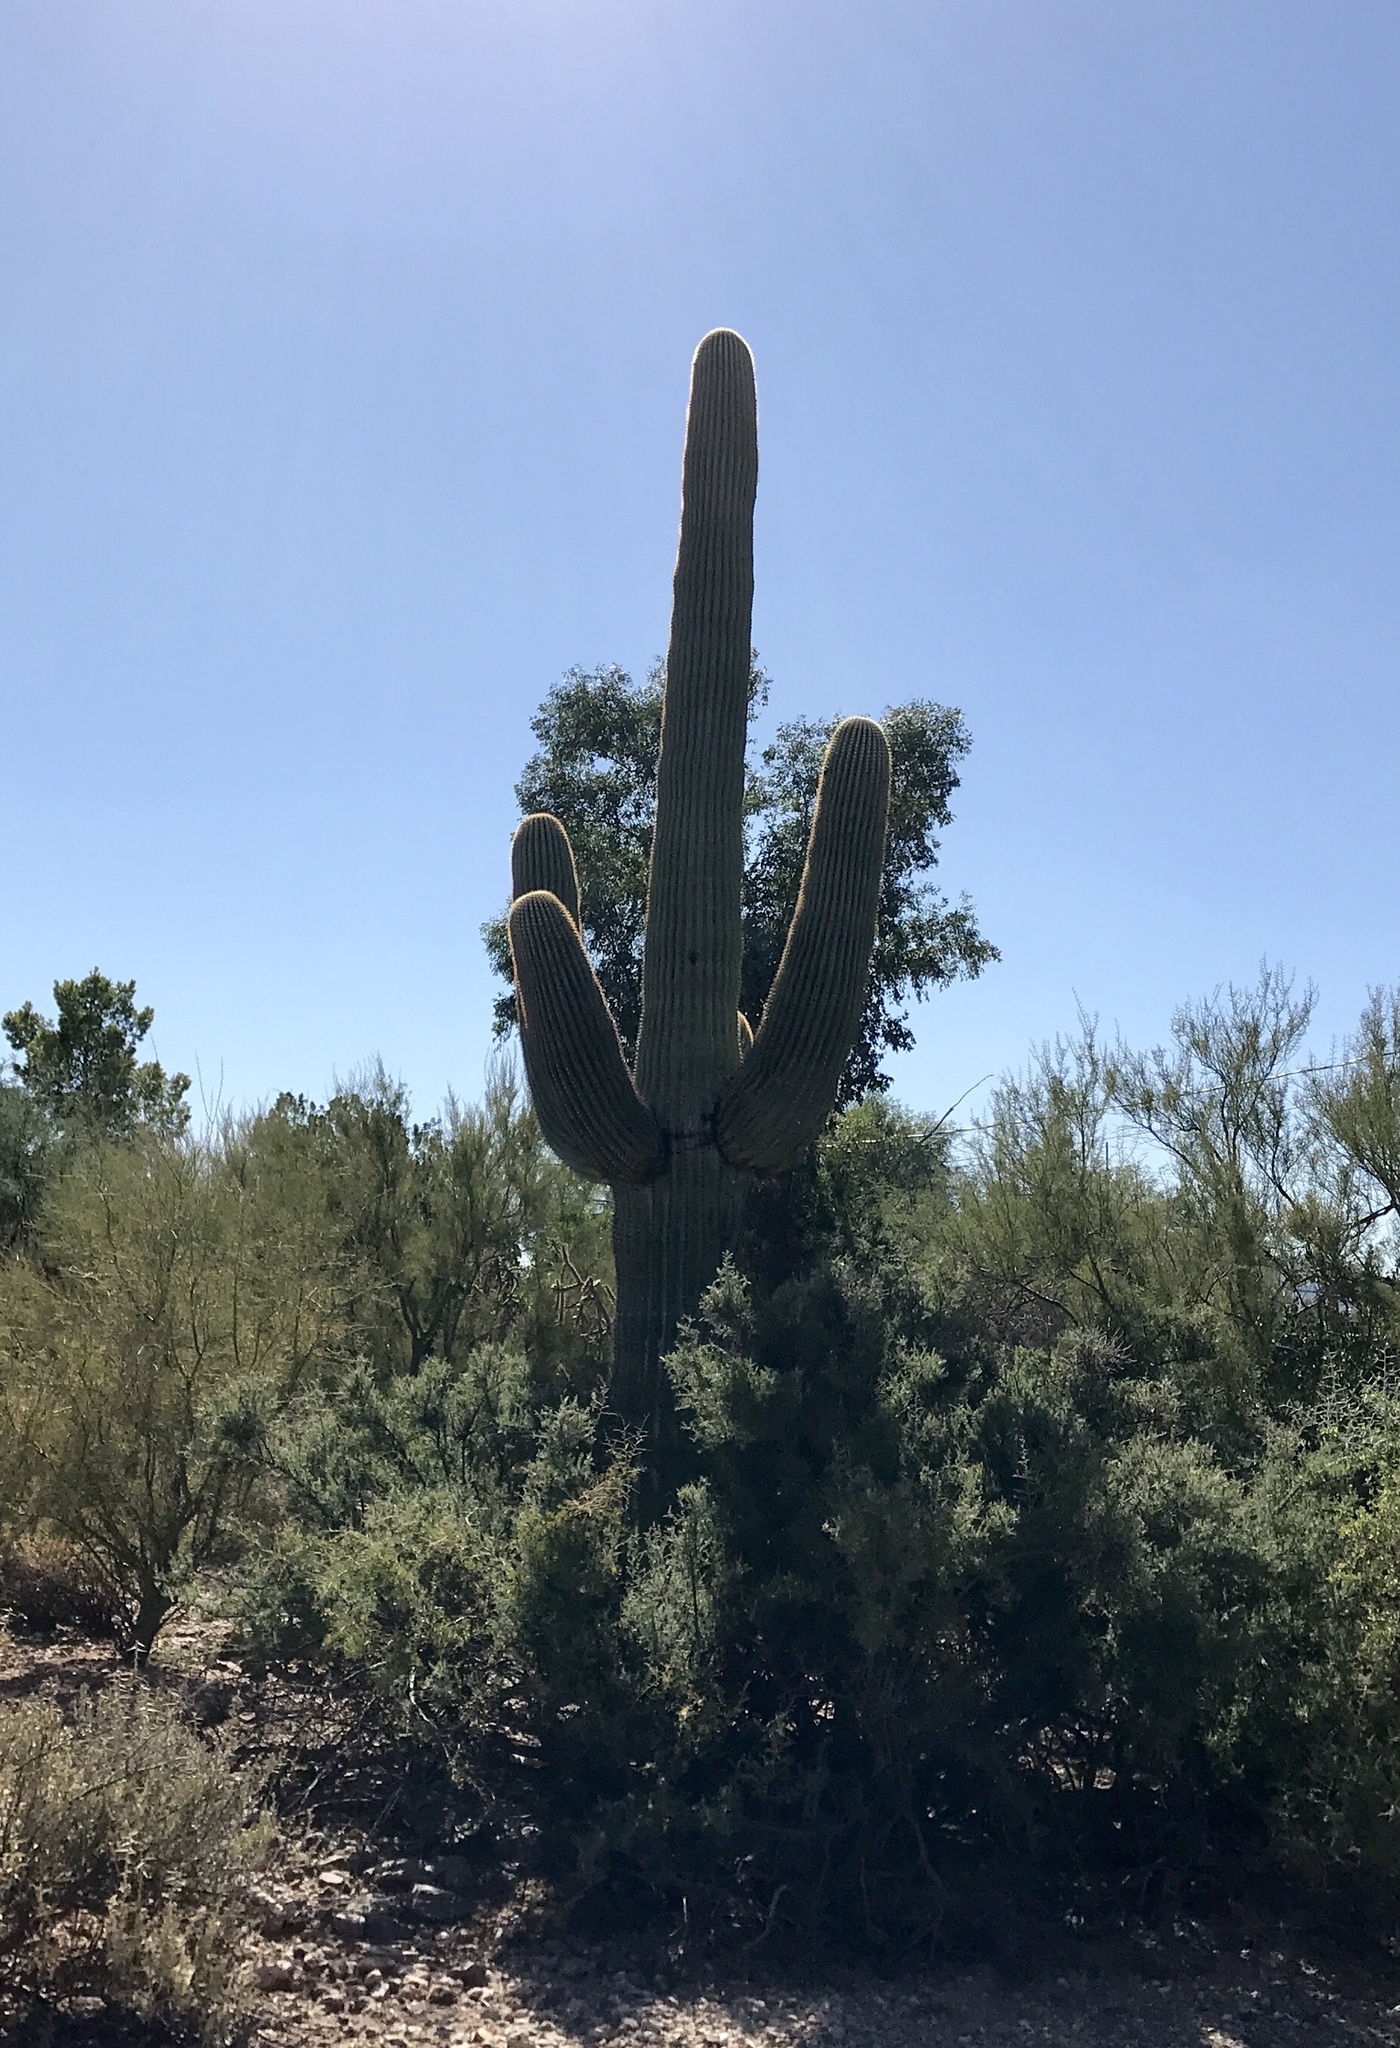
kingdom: Plantae
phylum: Tracheophyta
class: Magnoliopsida
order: Caryophyllales
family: Cactaceae
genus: Carnegiea
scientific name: Carnegiea gigantea
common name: Saguaro
